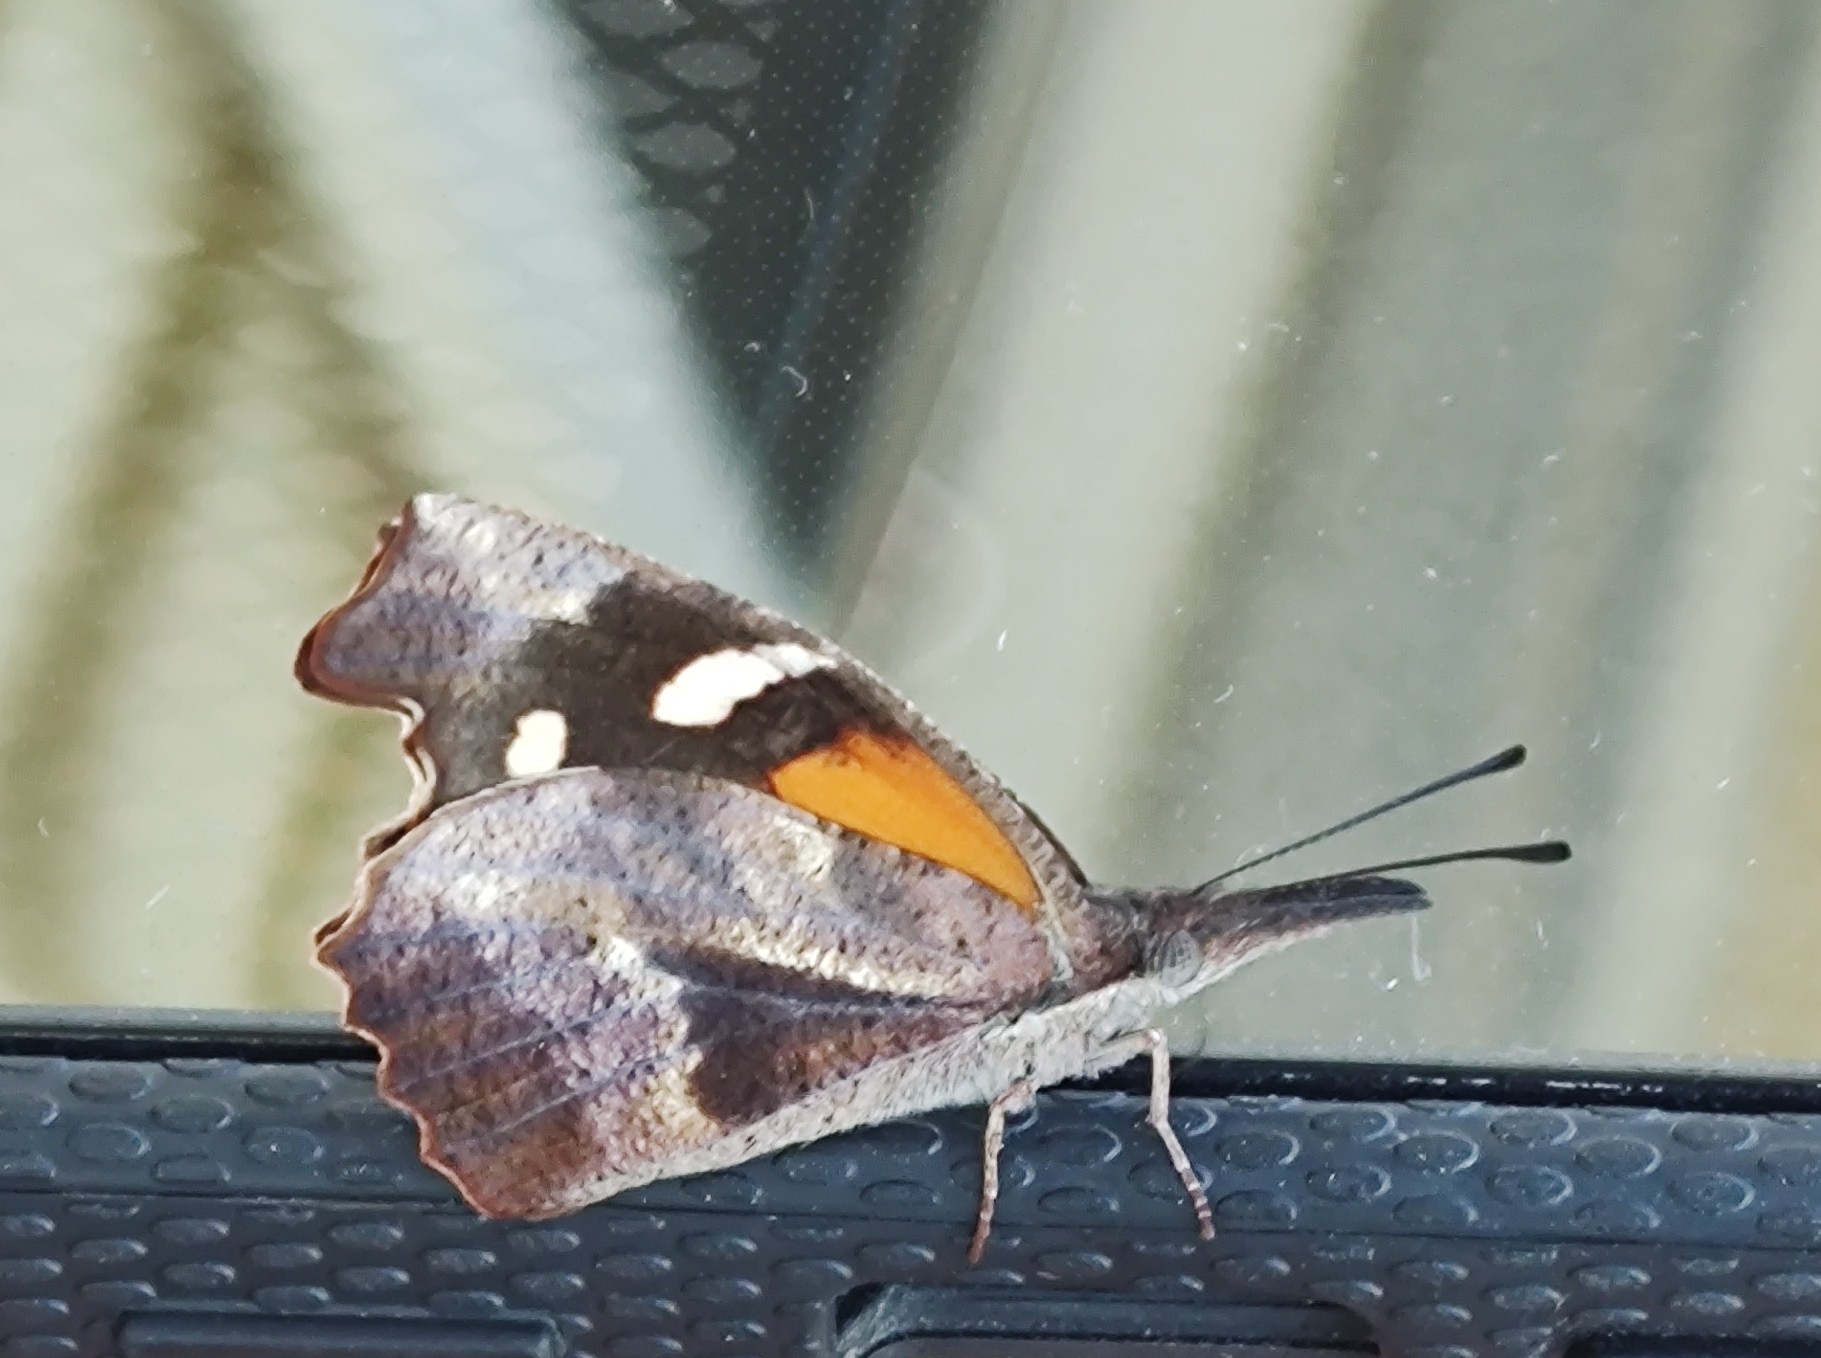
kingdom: Animalia
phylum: Arthropoda
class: Insecta
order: Lepidoptera
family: Nymphalidae
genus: Libytheana
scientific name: Libytheana carinenta
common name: American snout
